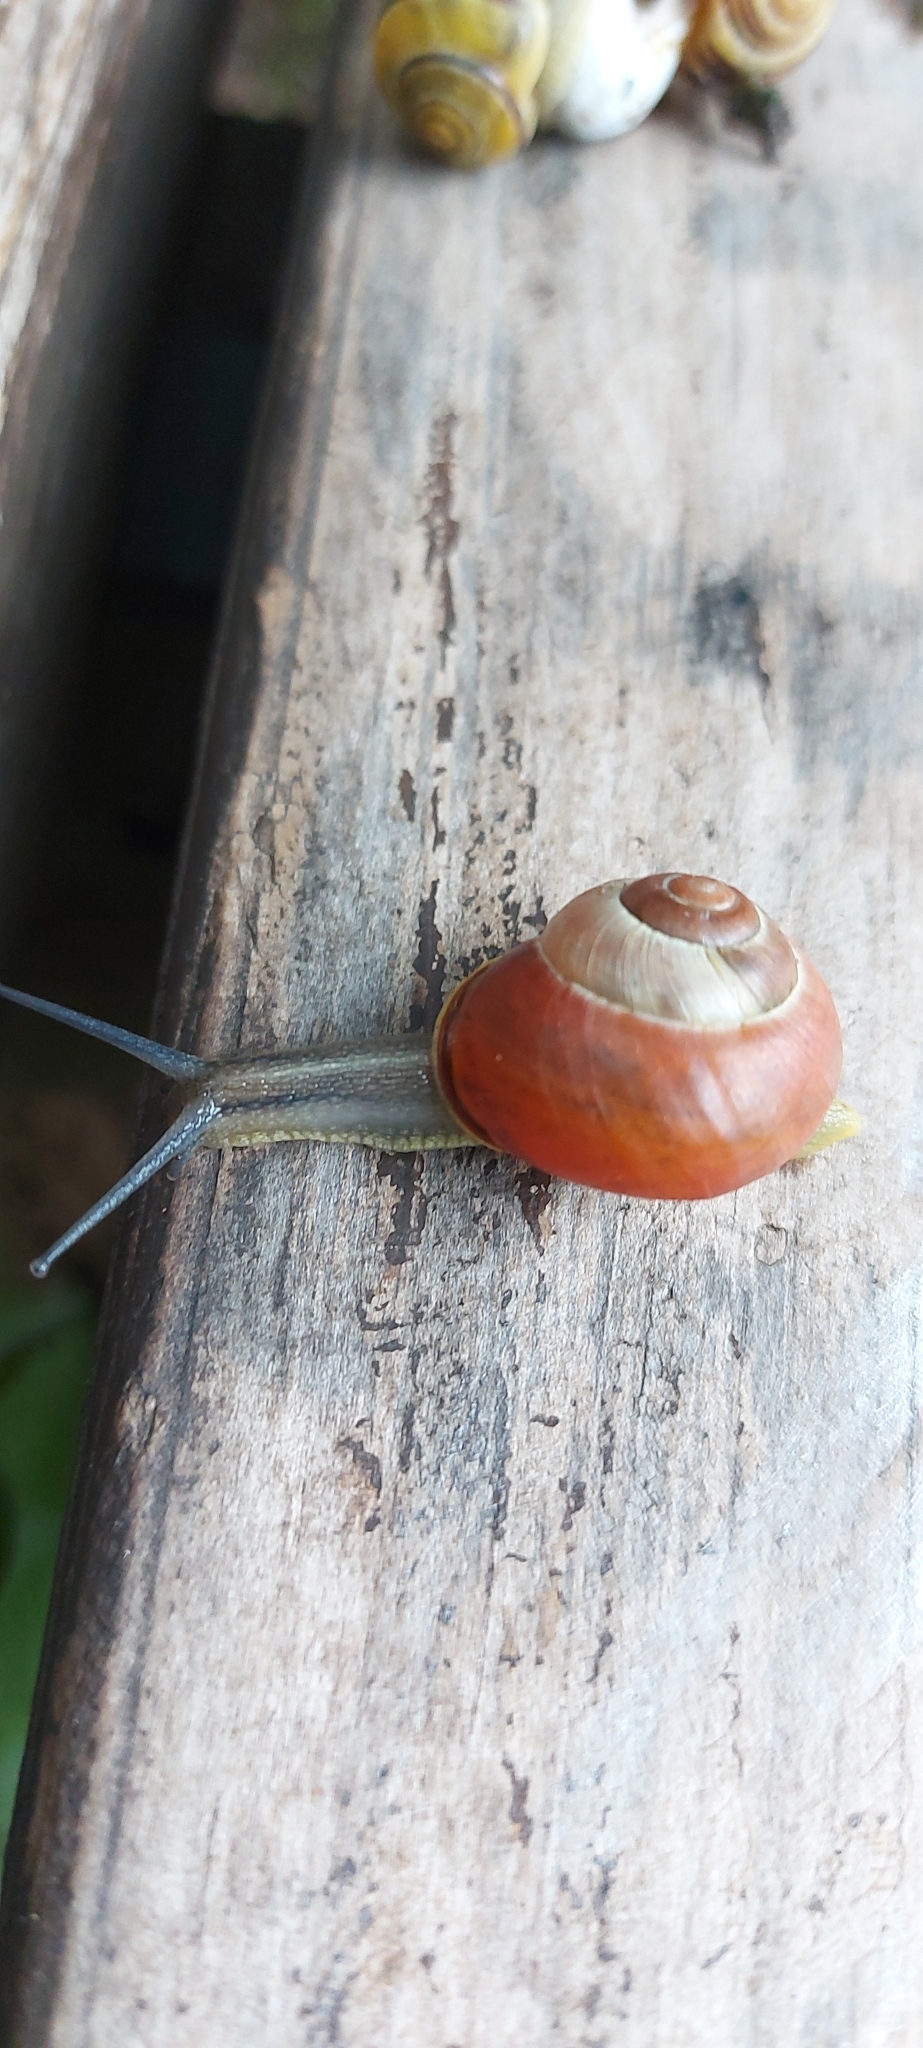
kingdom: Animalia
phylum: Mollusca
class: Gastropoda
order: Stylommatophora
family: Helicidae
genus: Cepaea
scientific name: Cepaea nemoralis
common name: Grovesnail
